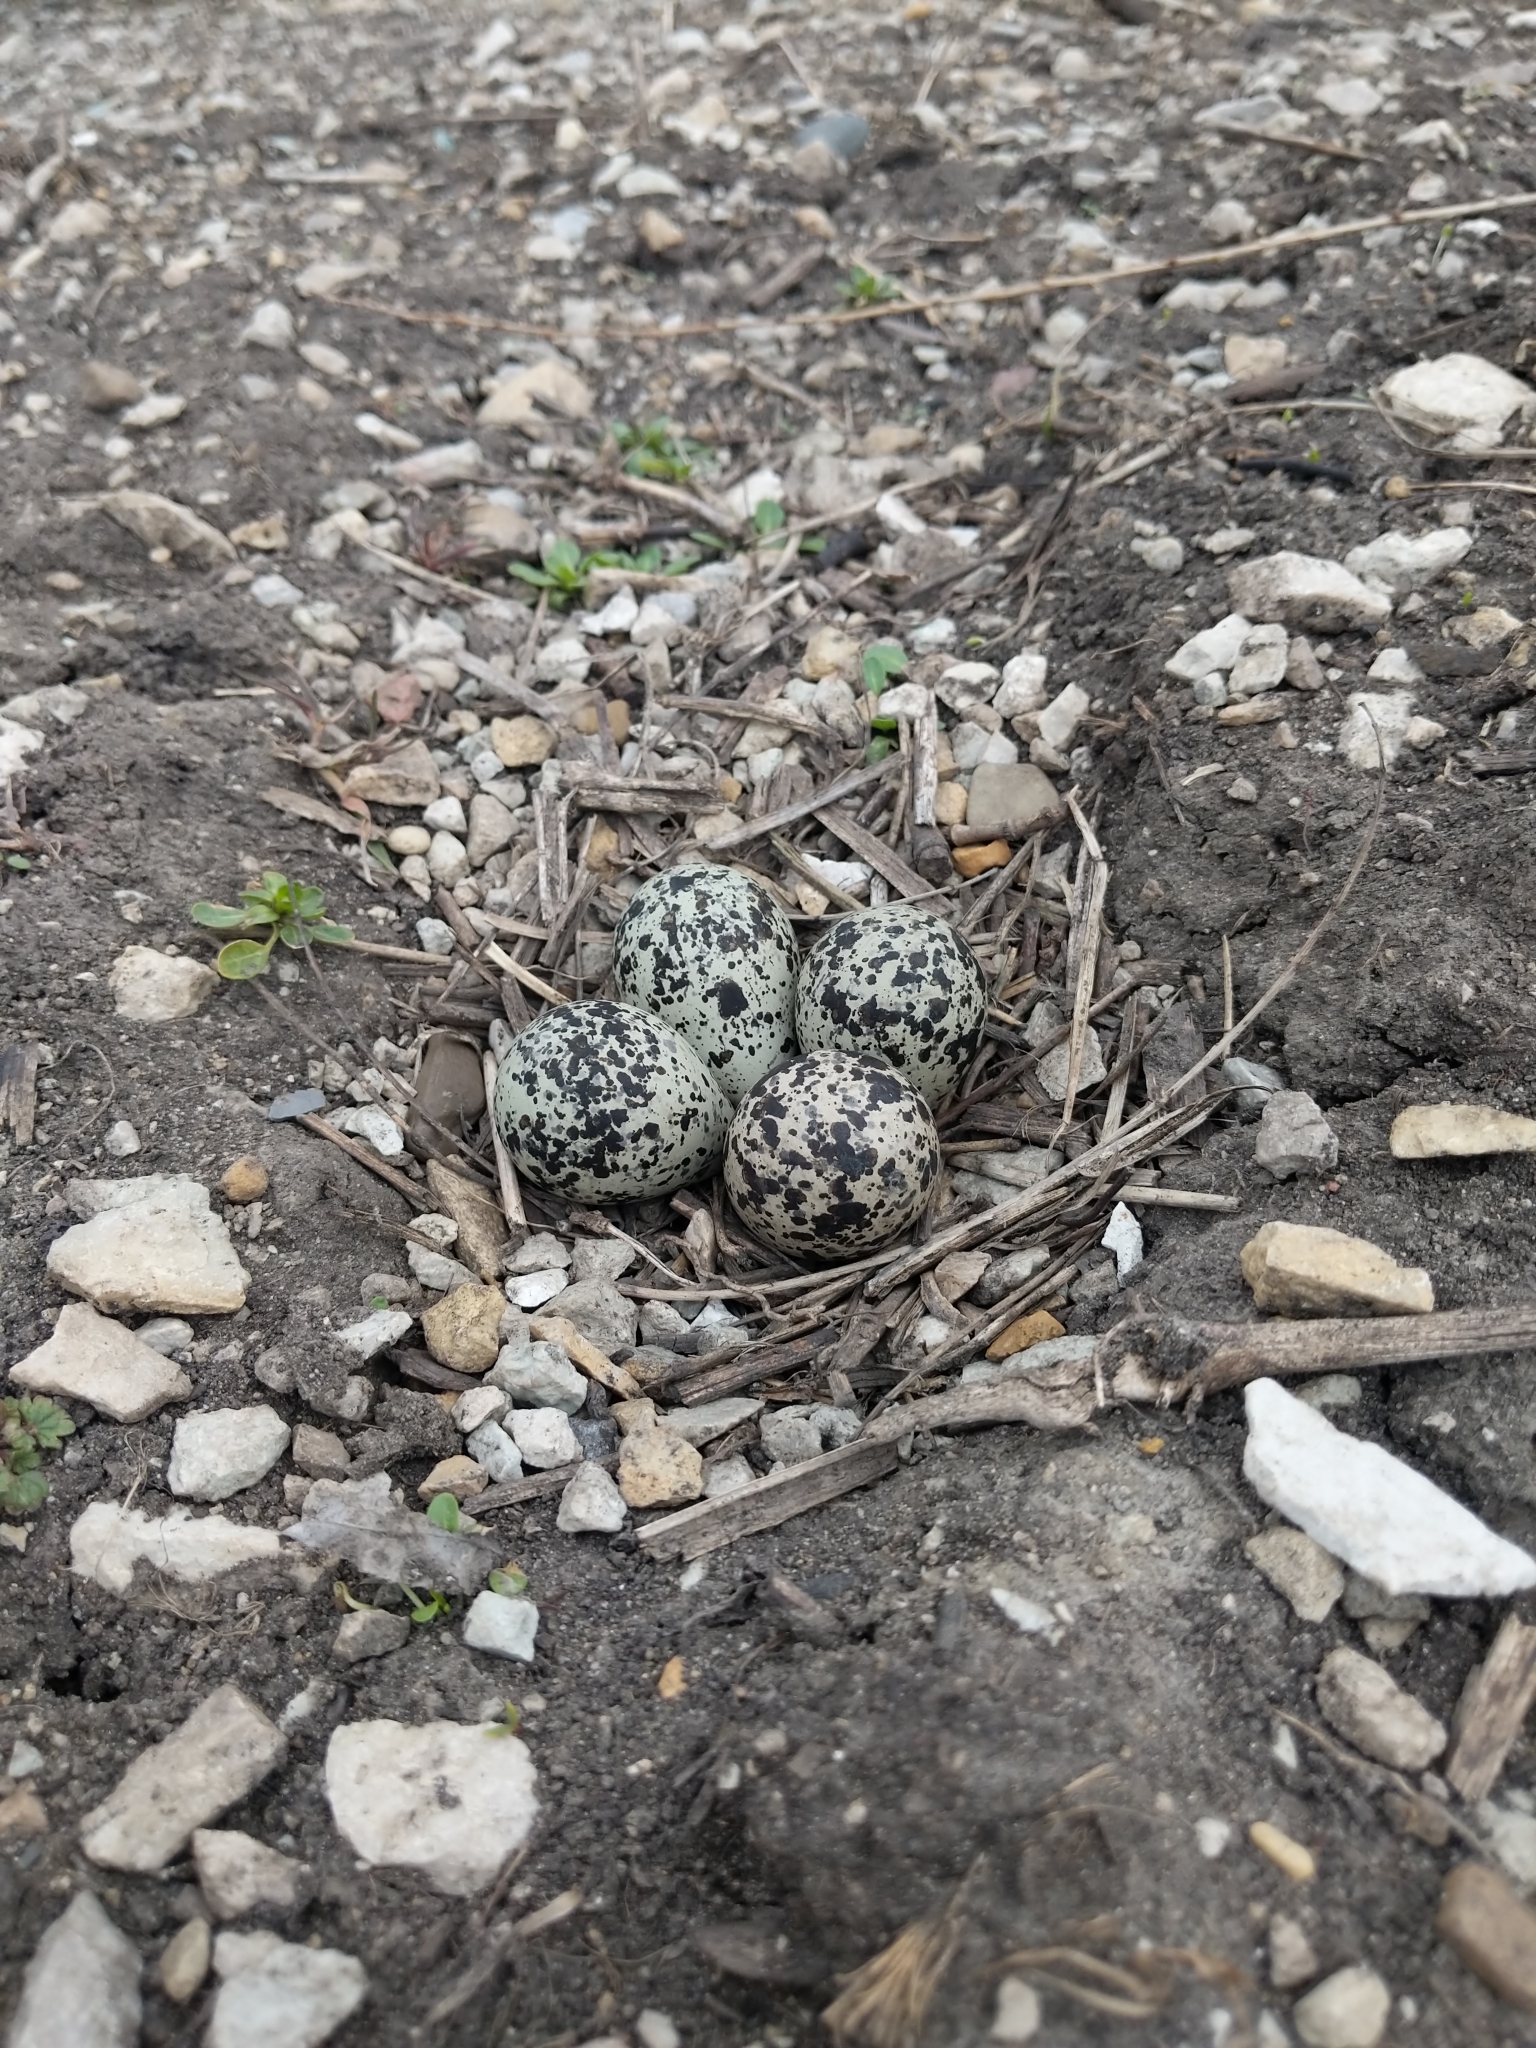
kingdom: Animalia
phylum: Chordata
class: Aves
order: Charadriiformes
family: Charadriidae
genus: Charadrius
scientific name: Charadrius vociferus
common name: Killdeer
